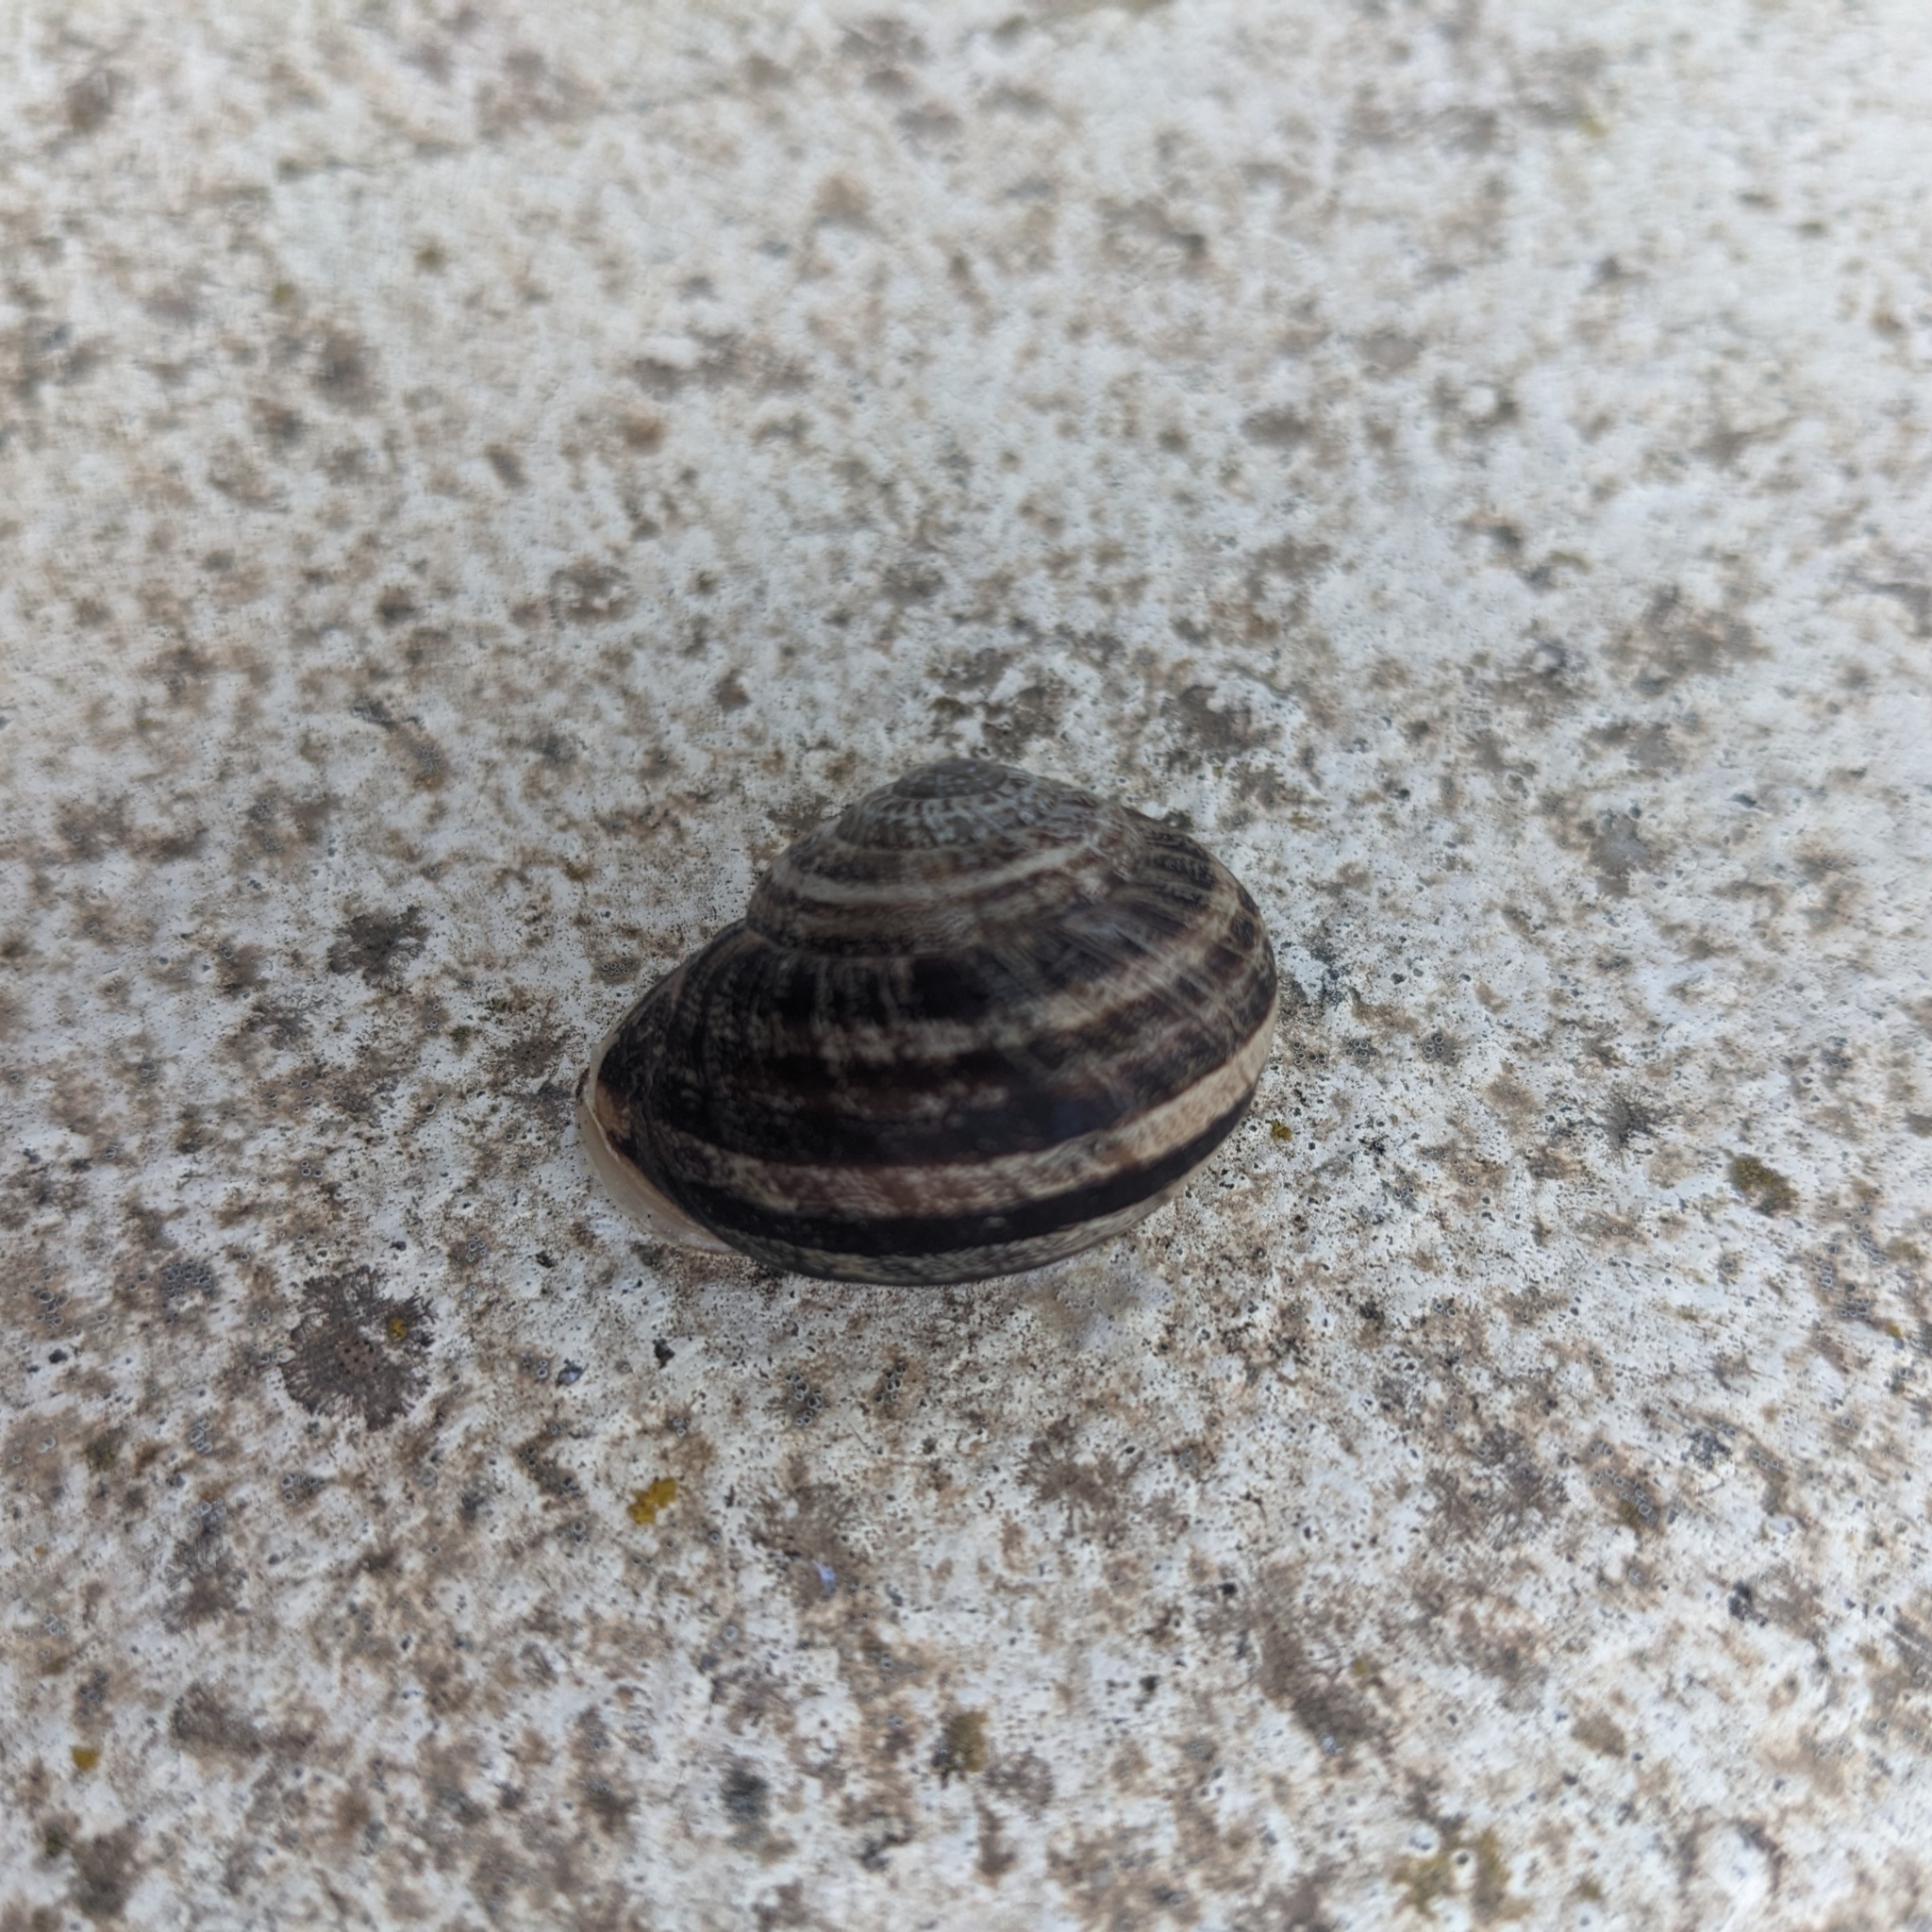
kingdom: Animalia
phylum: Mollusca
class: Gastropoda
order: Stylommatophora
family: Helicidae
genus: Eobania
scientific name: Eobania vermiculata
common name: Chocolateband snail
